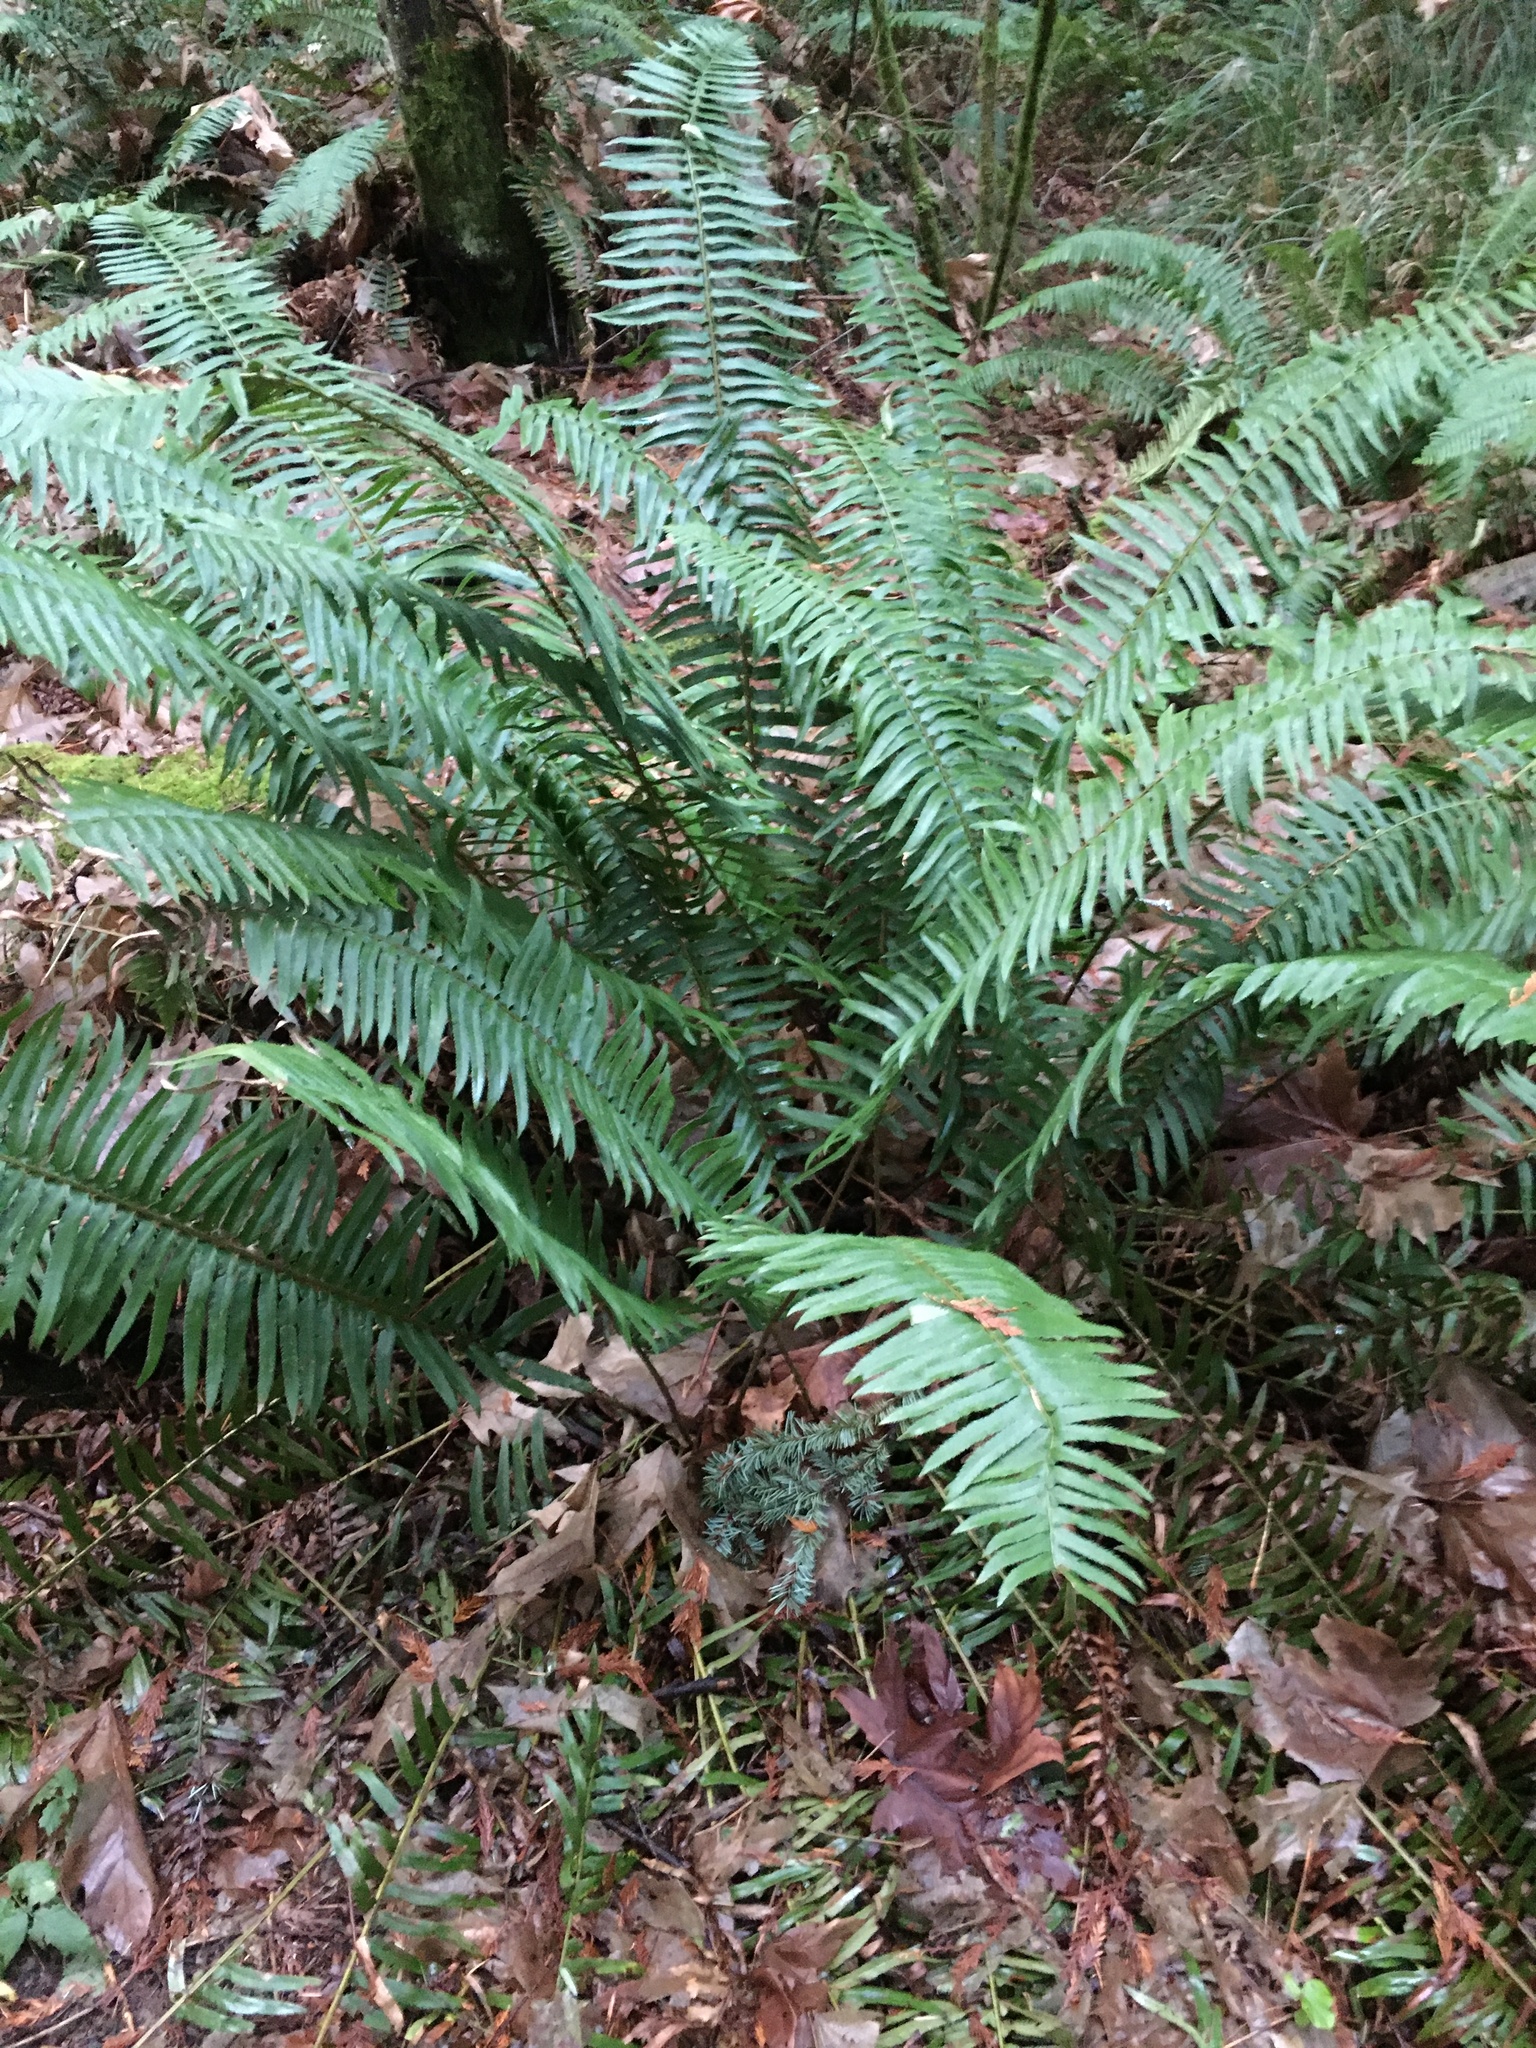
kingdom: Plantae
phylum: Tracheophyta
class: Polypodiopsida
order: Polypodiales
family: Dryopteridaceae
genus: Polystichum
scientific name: Polystichum munitum
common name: Western sword-fern
